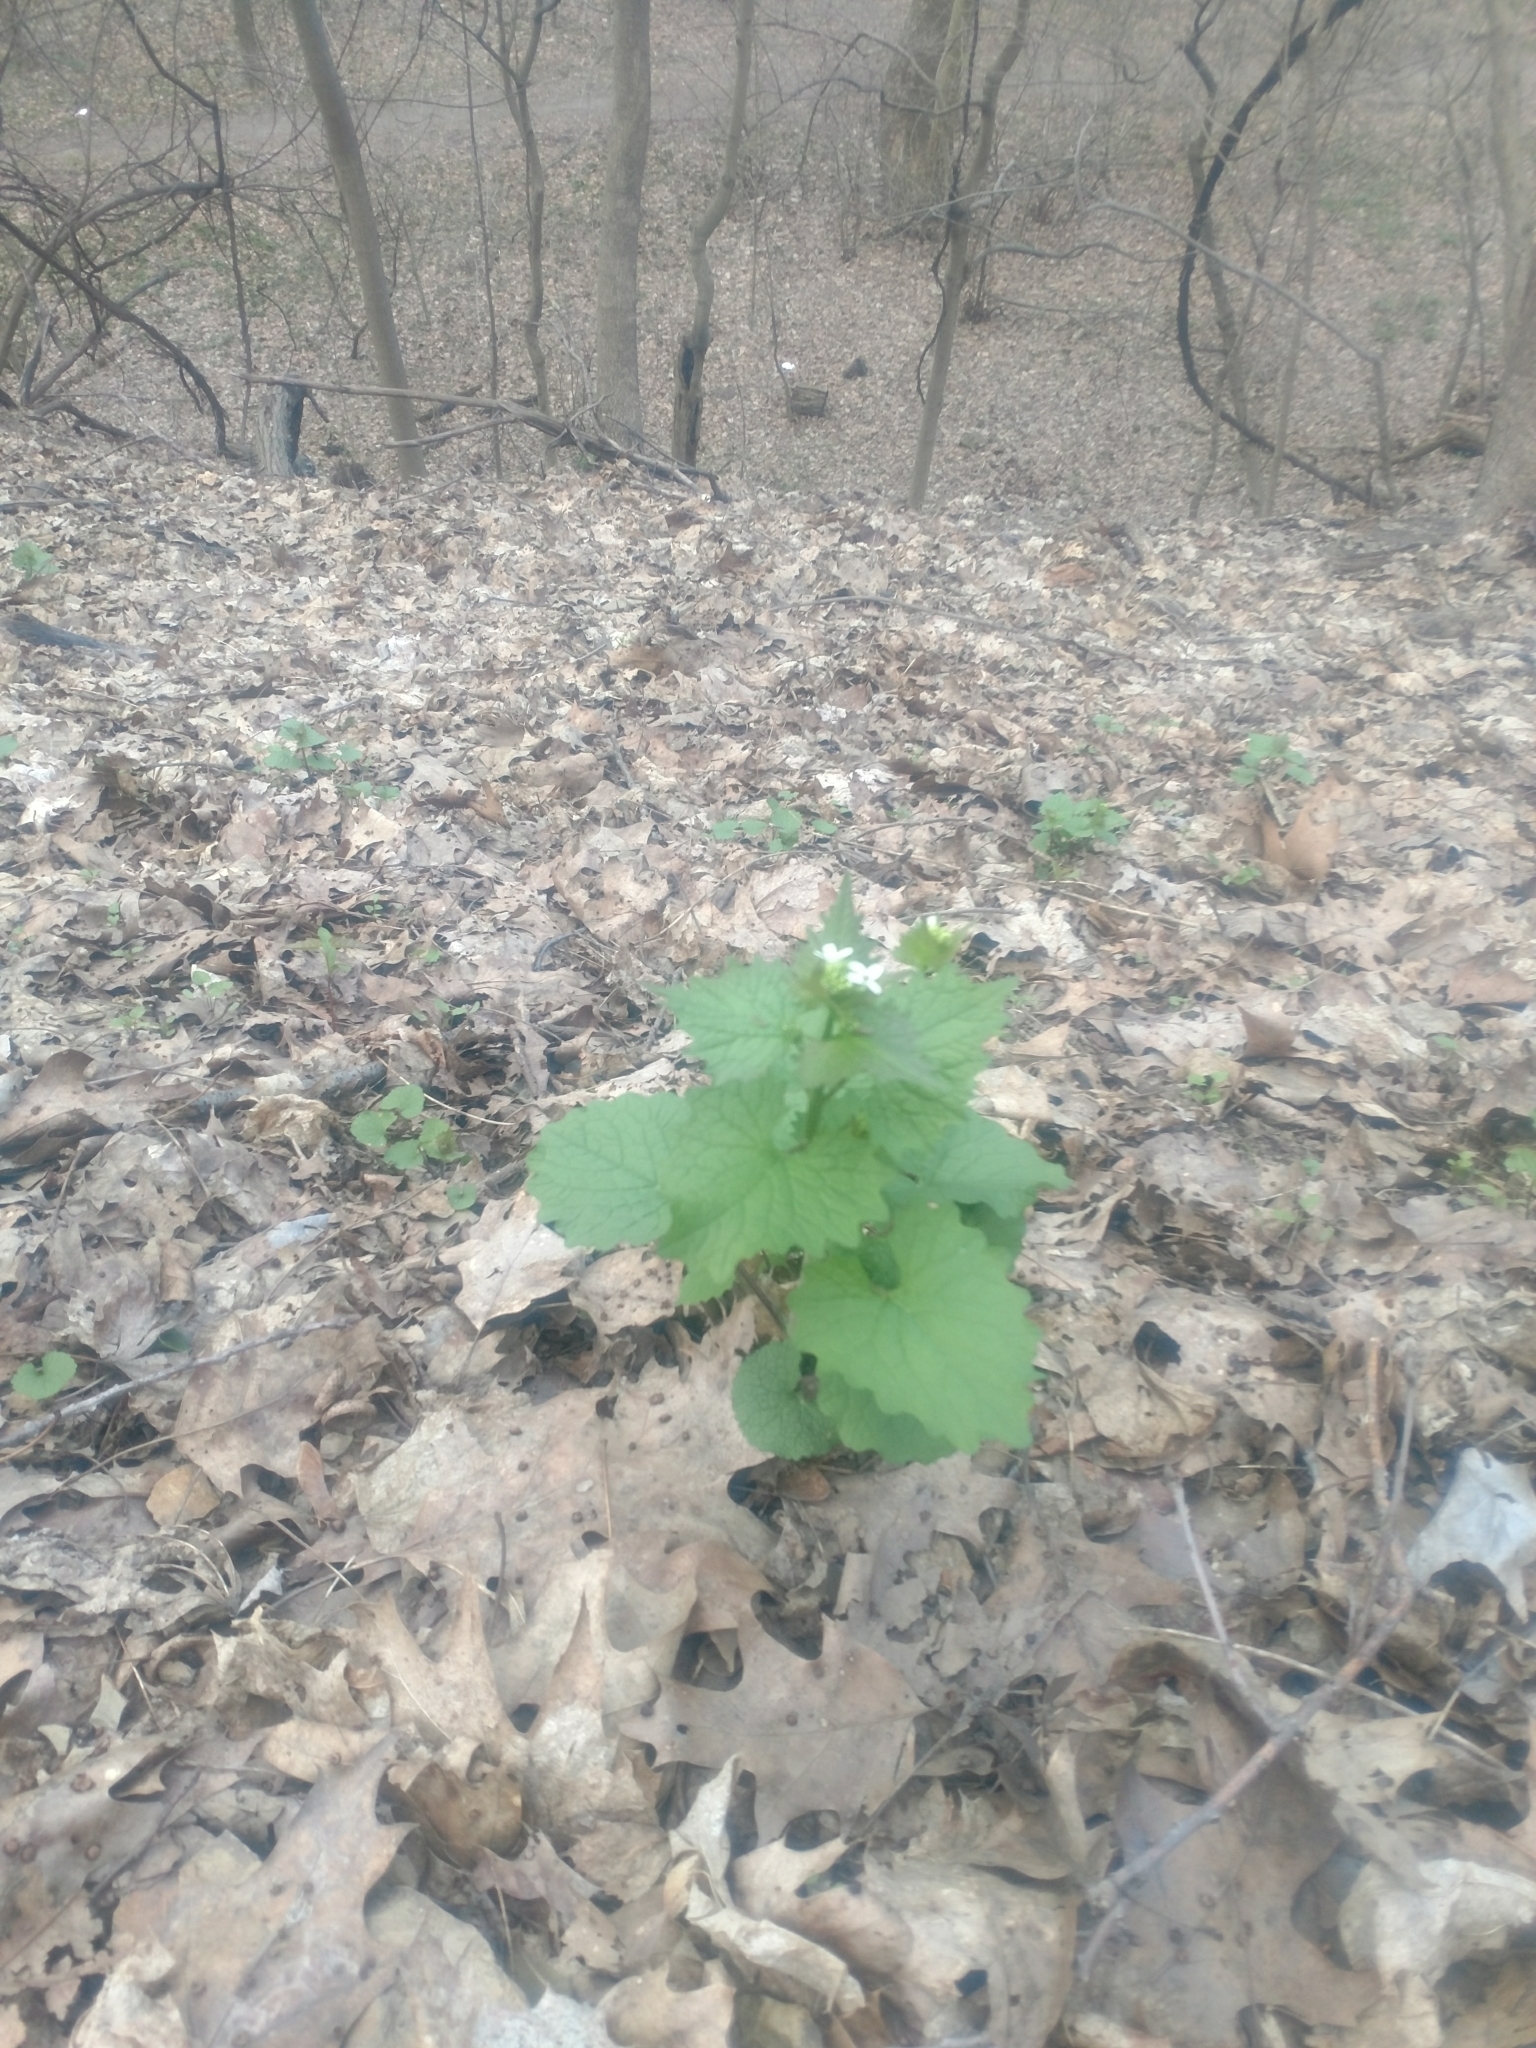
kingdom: Plantae
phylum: Tracheophyta
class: Magnoliopsida
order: Brassicales
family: Brassicaceae
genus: Alliaria
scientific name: Alliaria petiolata
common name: Garlic mustard
